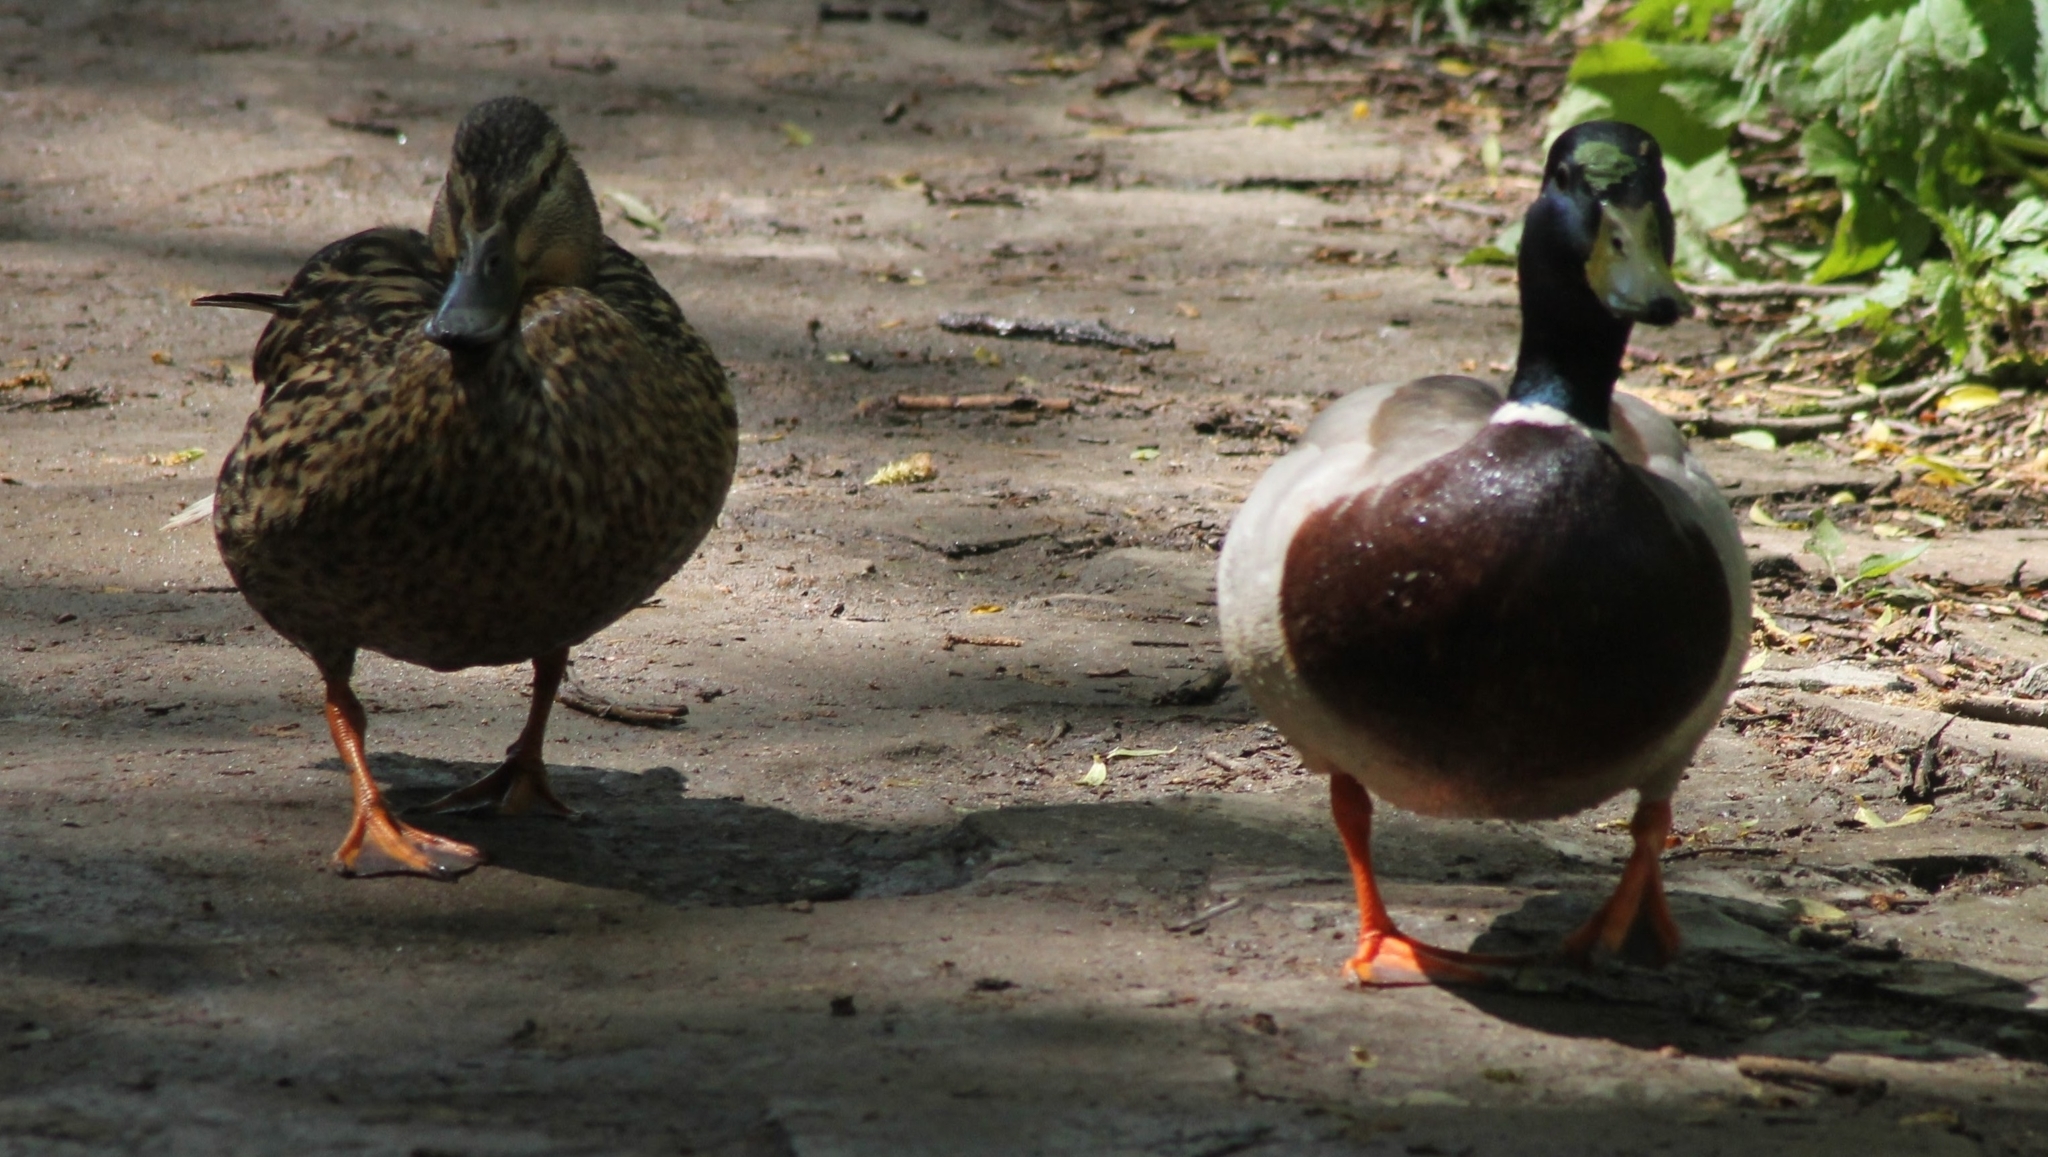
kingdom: Animalia
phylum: Chordata
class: Aves
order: Anseriformes
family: Anatidae
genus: Anas
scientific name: Anas platyrhynchos
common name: Mallard
